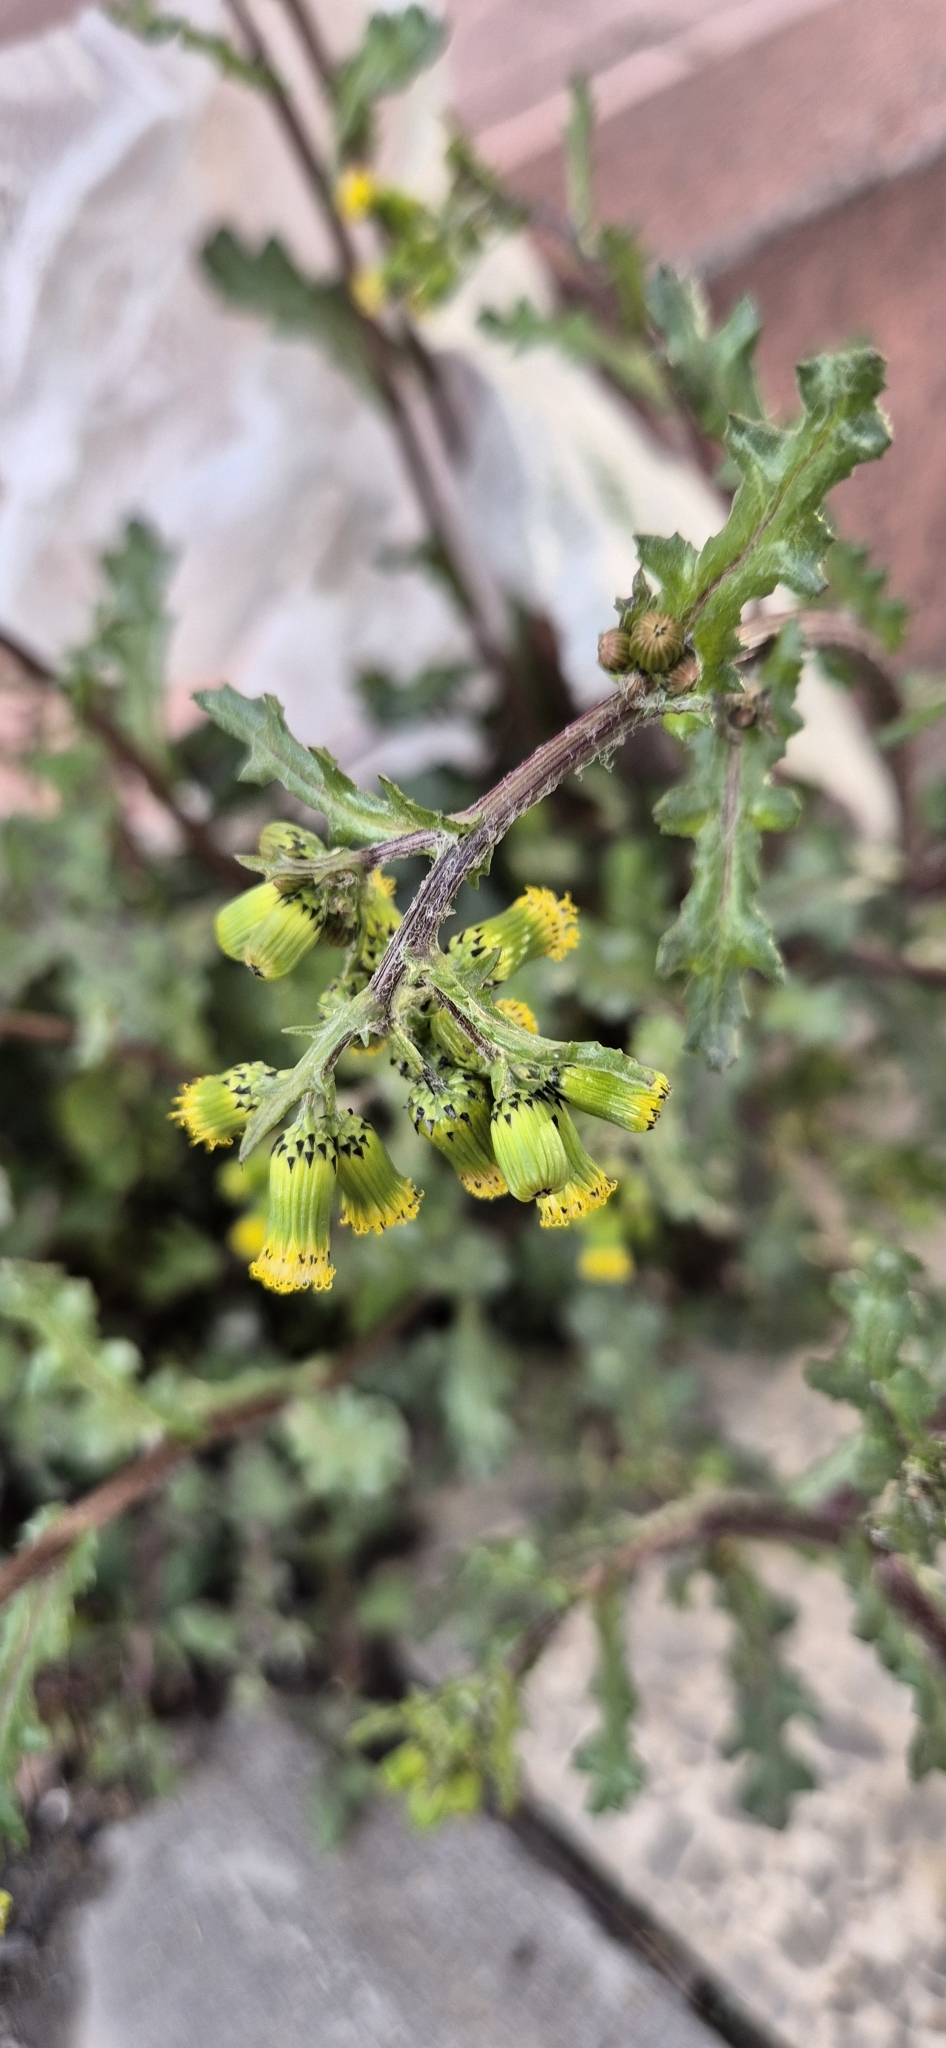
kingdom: Plantae
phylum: Tracheophyta
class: Magnoliopsida
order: Asterales
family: Asteraceae
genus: Senecio
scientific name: Senecio vulgaris
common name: Old-man-in-the-spring
